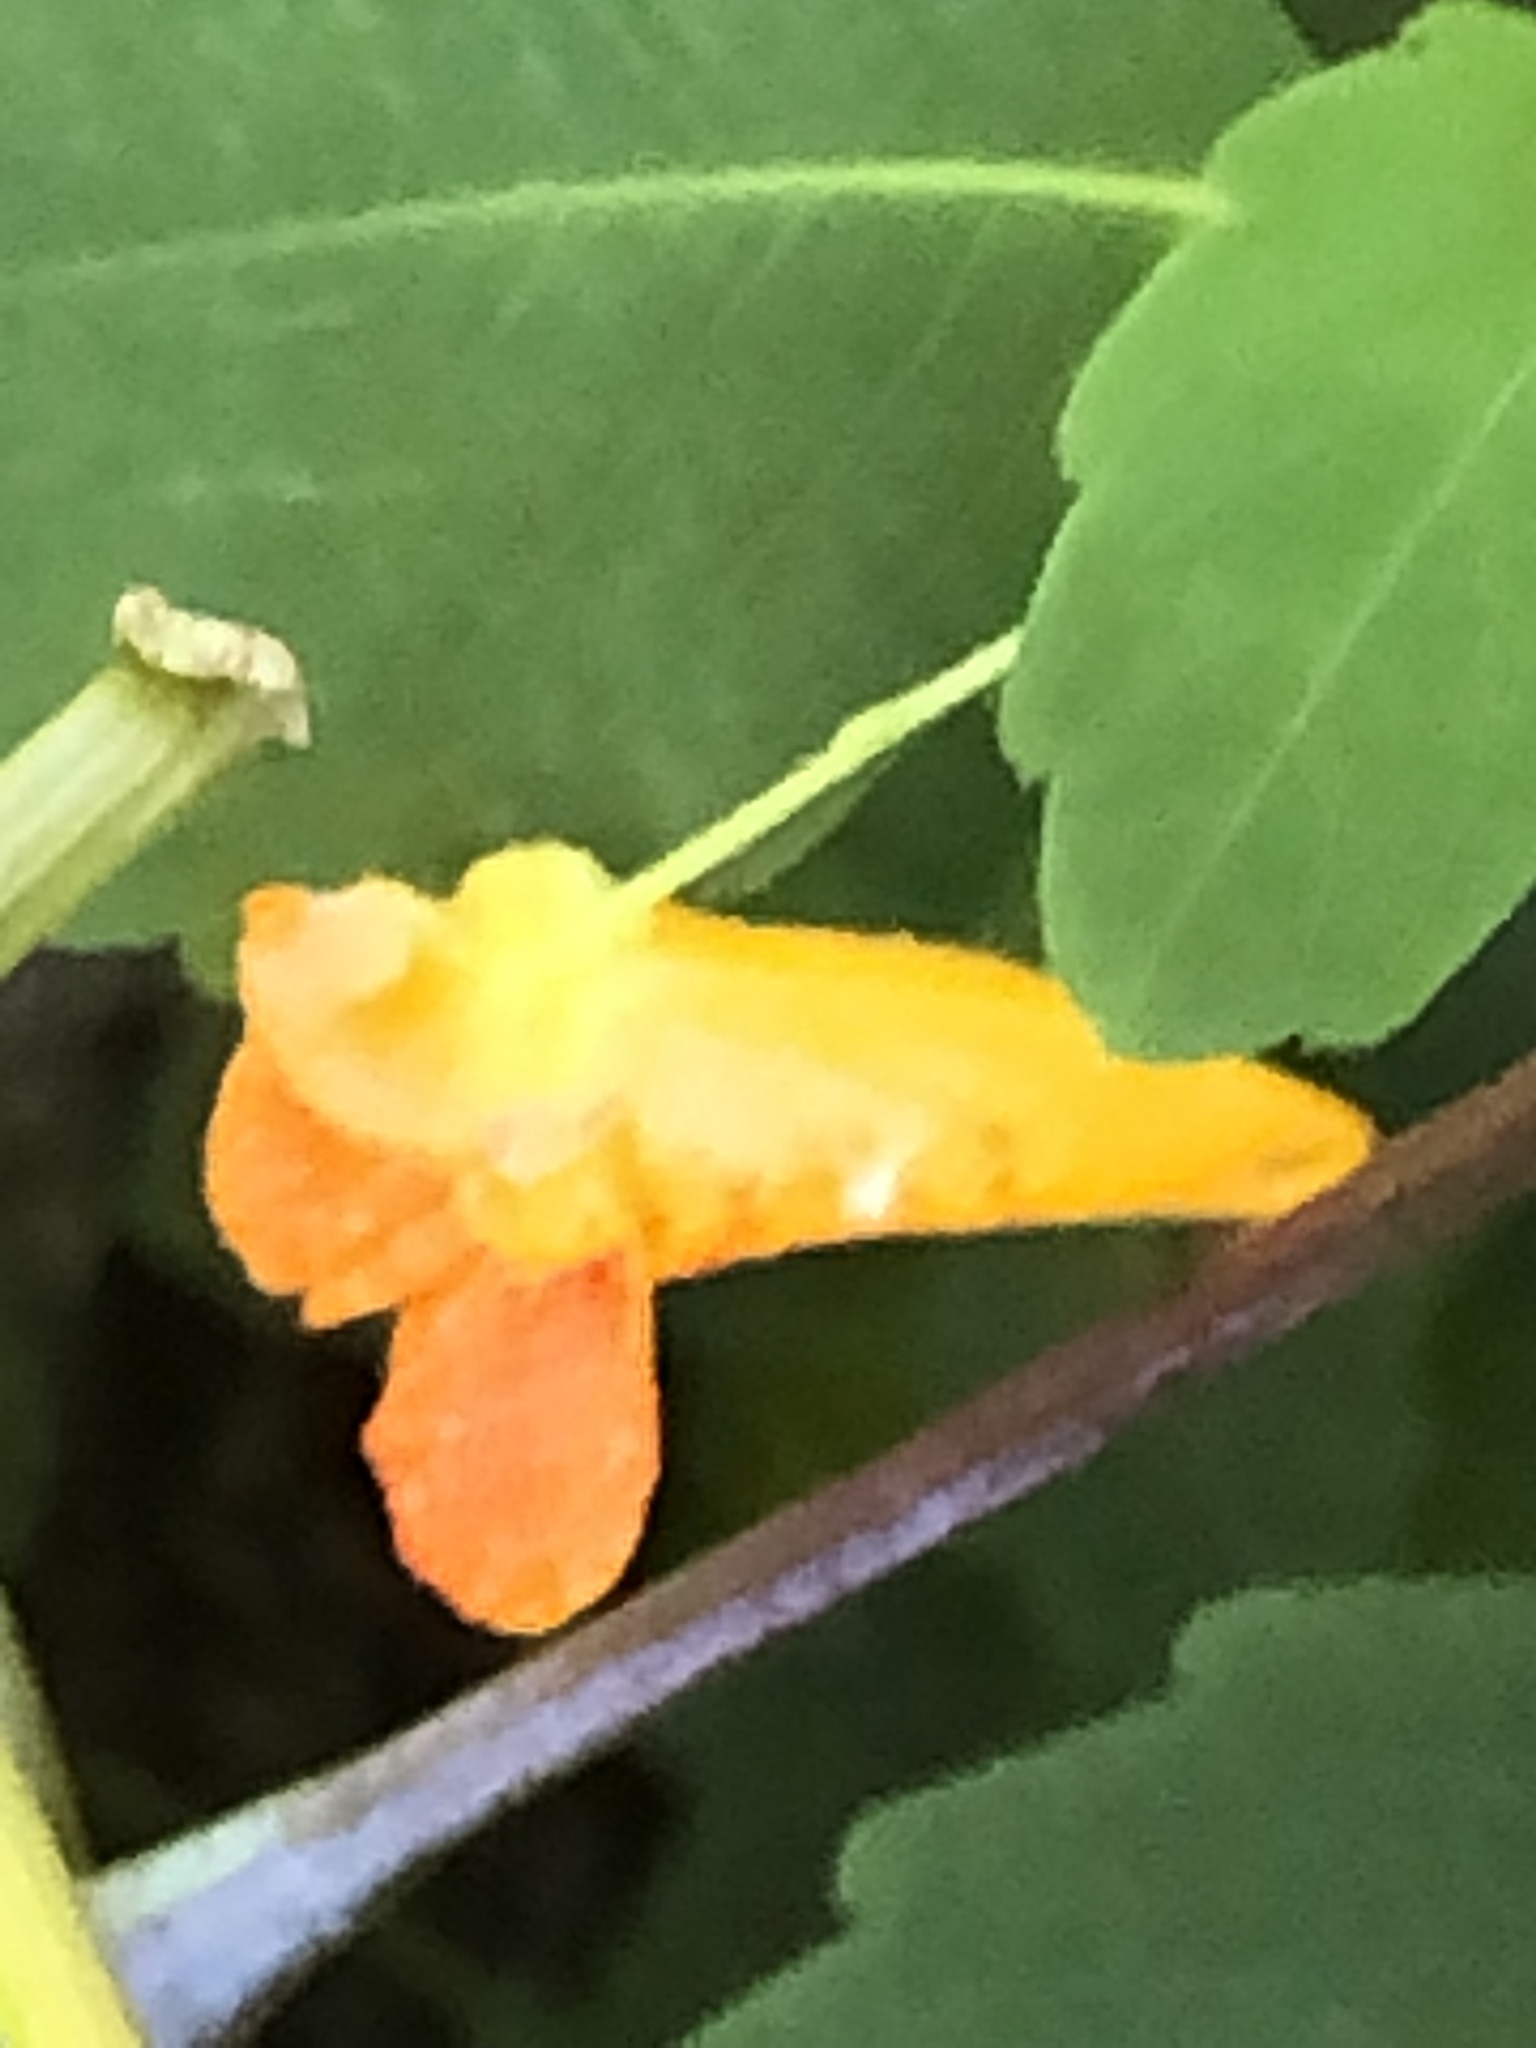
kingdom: Plantae
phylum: Tracheophyta
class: Magnoliopsida
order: Ericales
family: Balsaminaceae
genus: Impatiens
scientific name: Impatiens capensis
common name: Orange balsam
